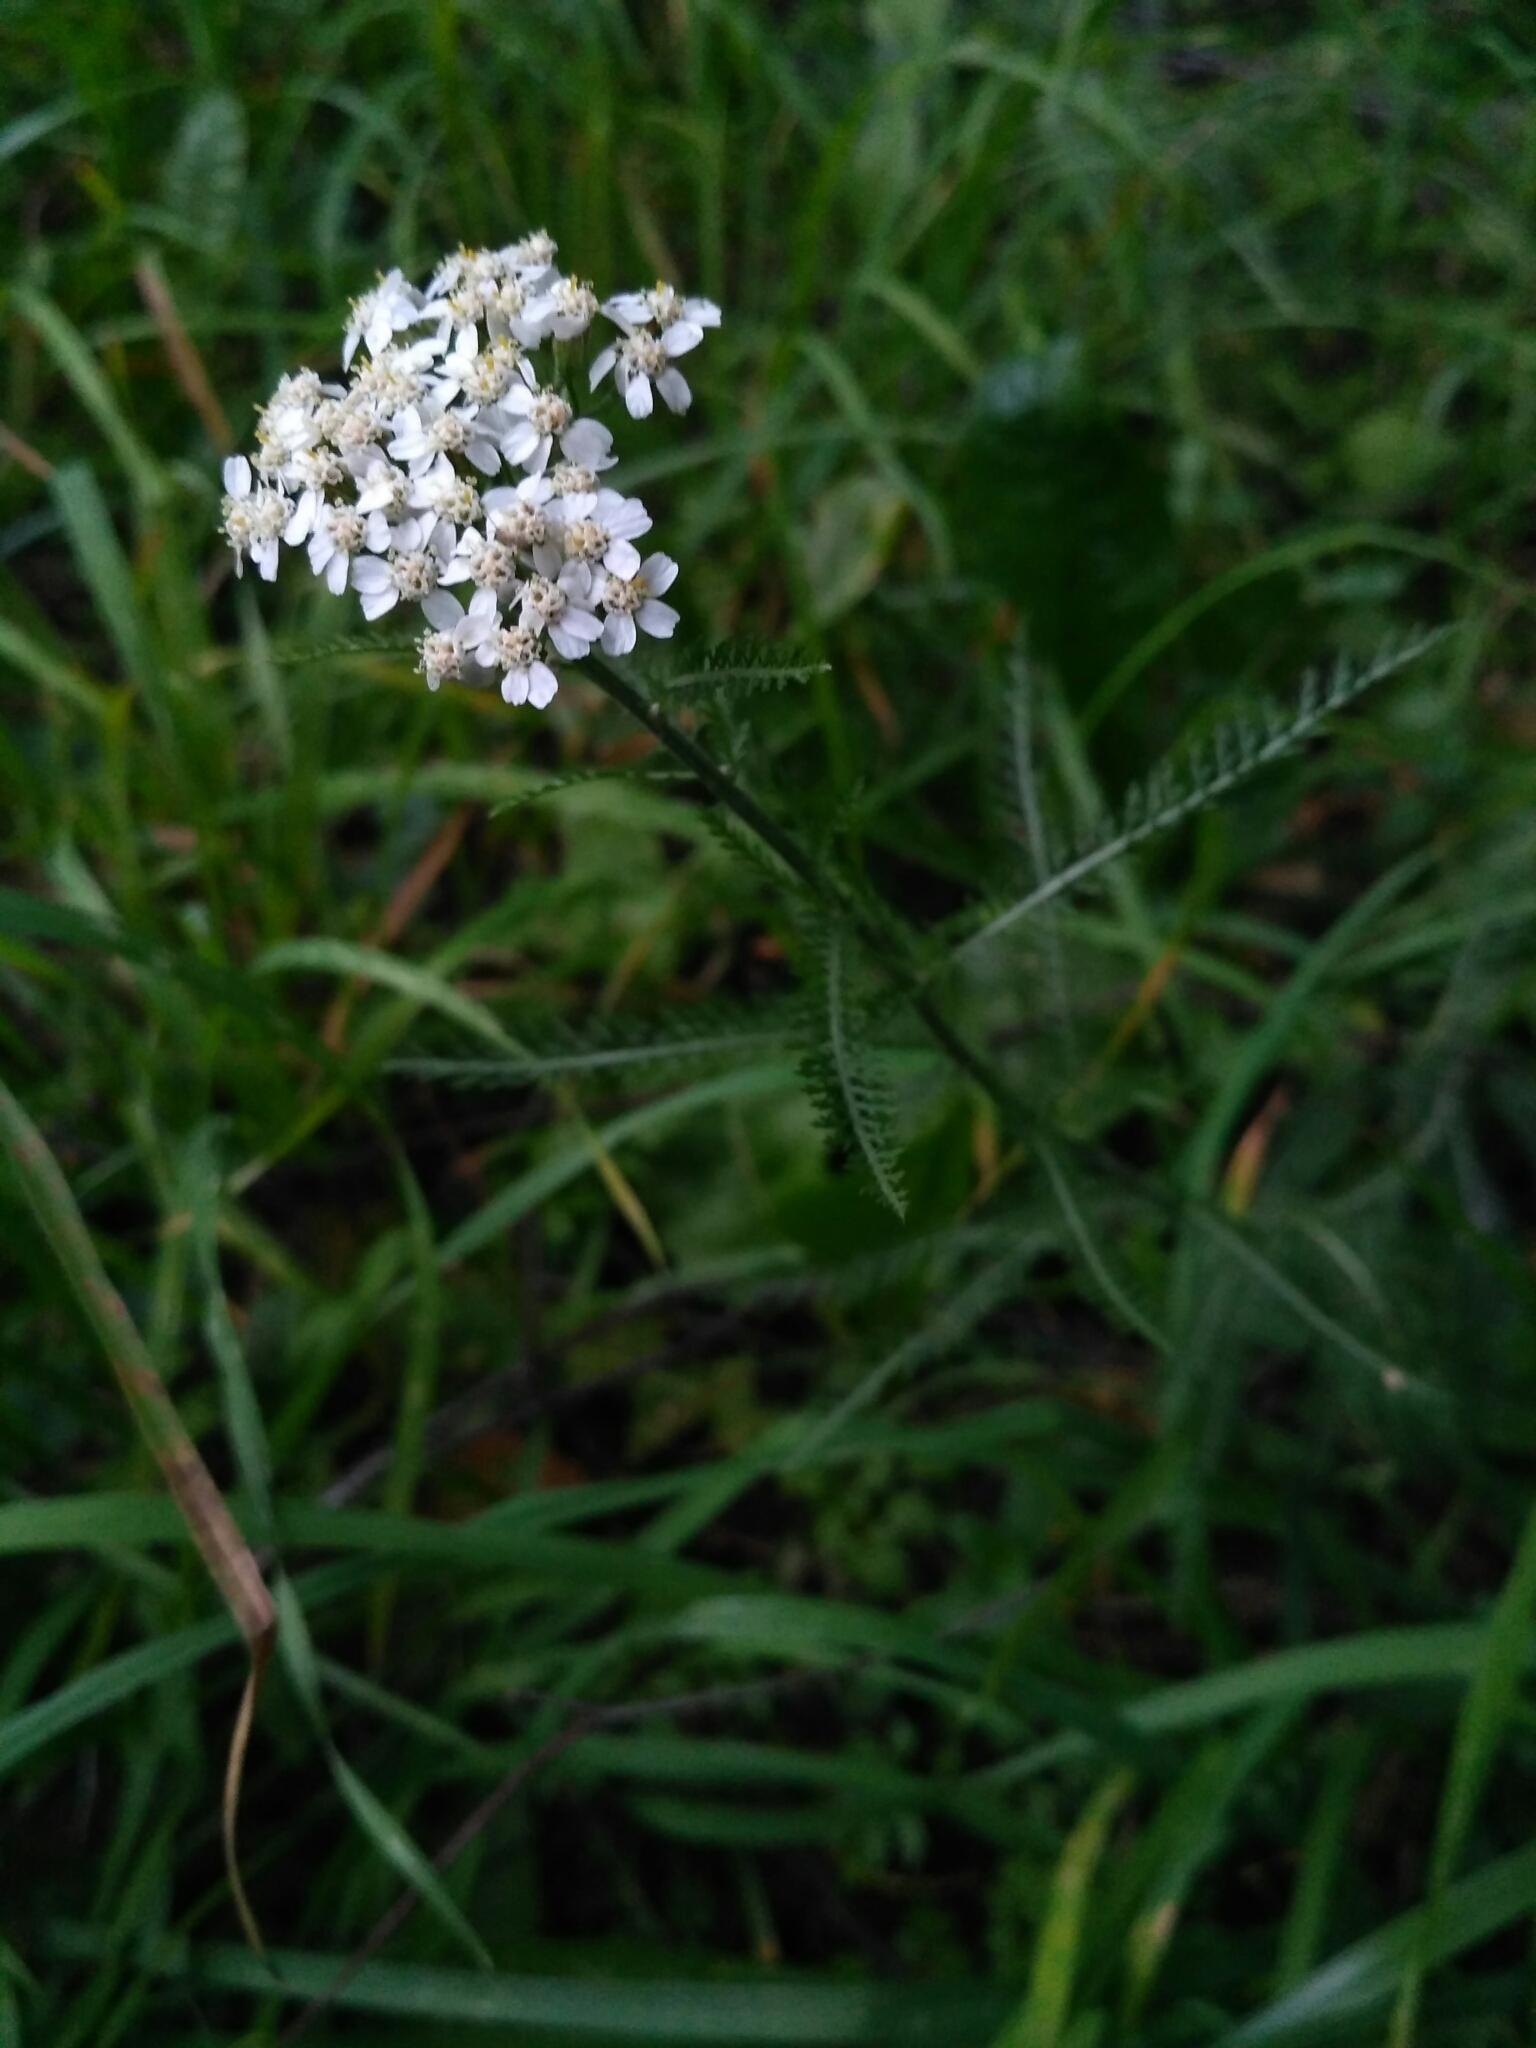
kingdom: Plantae
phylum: Tracheophyta
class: Magnoliopsida
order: Asterales
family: Asteraceae
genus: Achillea
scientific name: Achillea millefolium
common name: Yarrow
